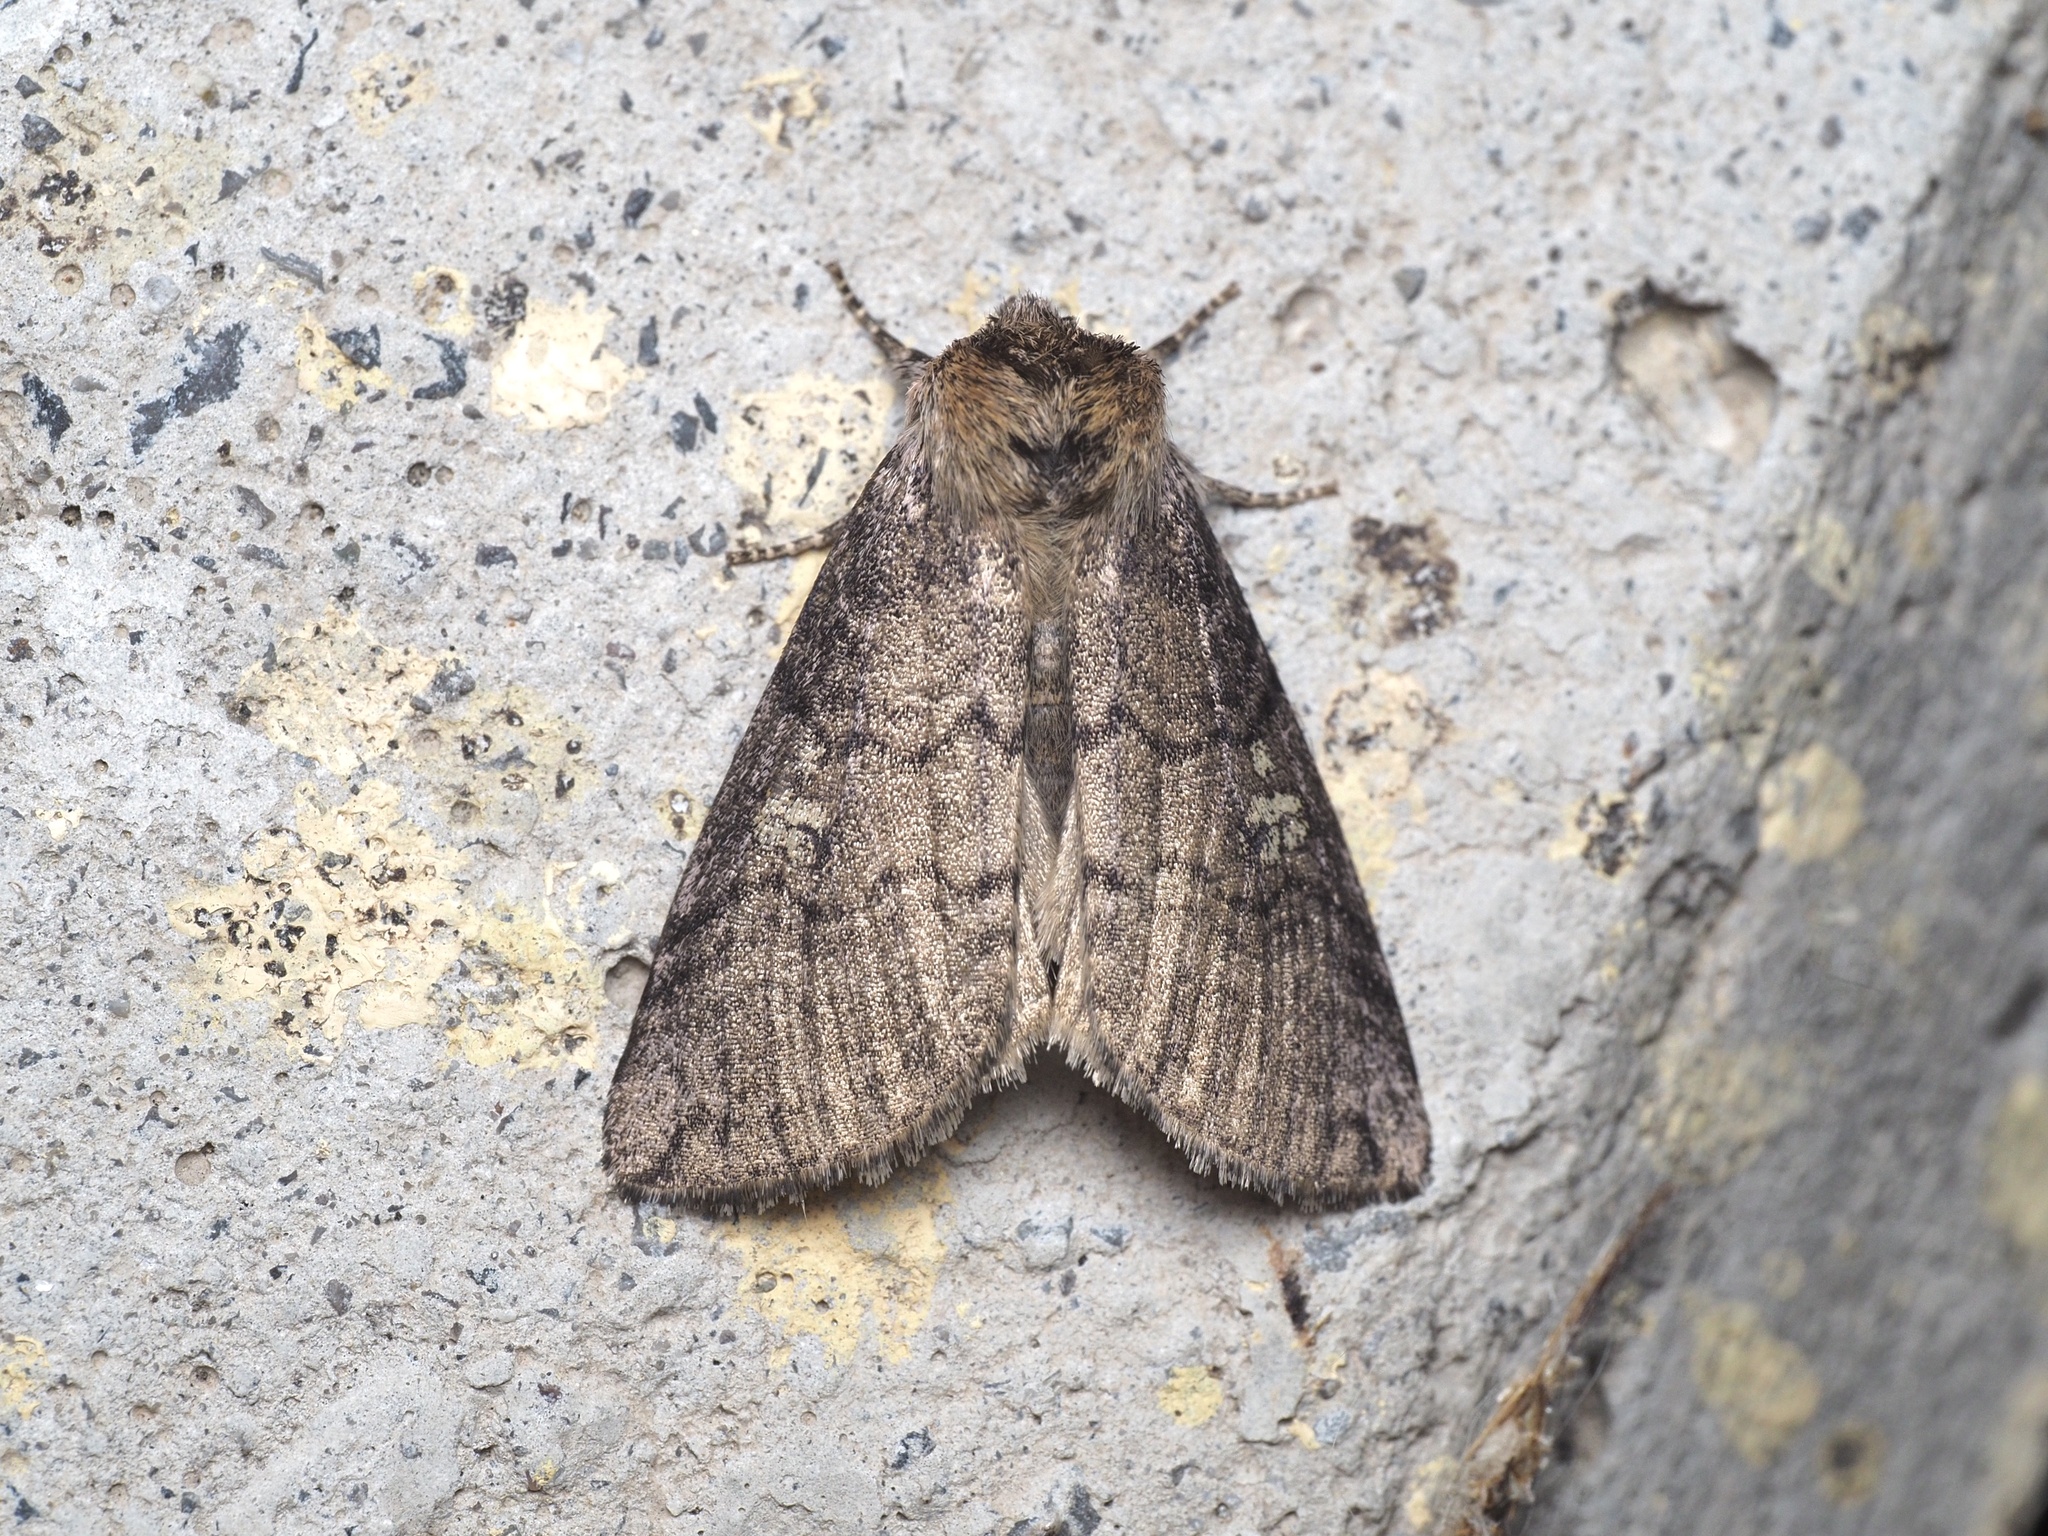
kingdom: Animalia
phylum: Arthropoda
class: Insecta
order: Lepidoptera
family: Drepanidae
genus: Tethea
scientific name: Tethea or
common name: Poplar lutestring
